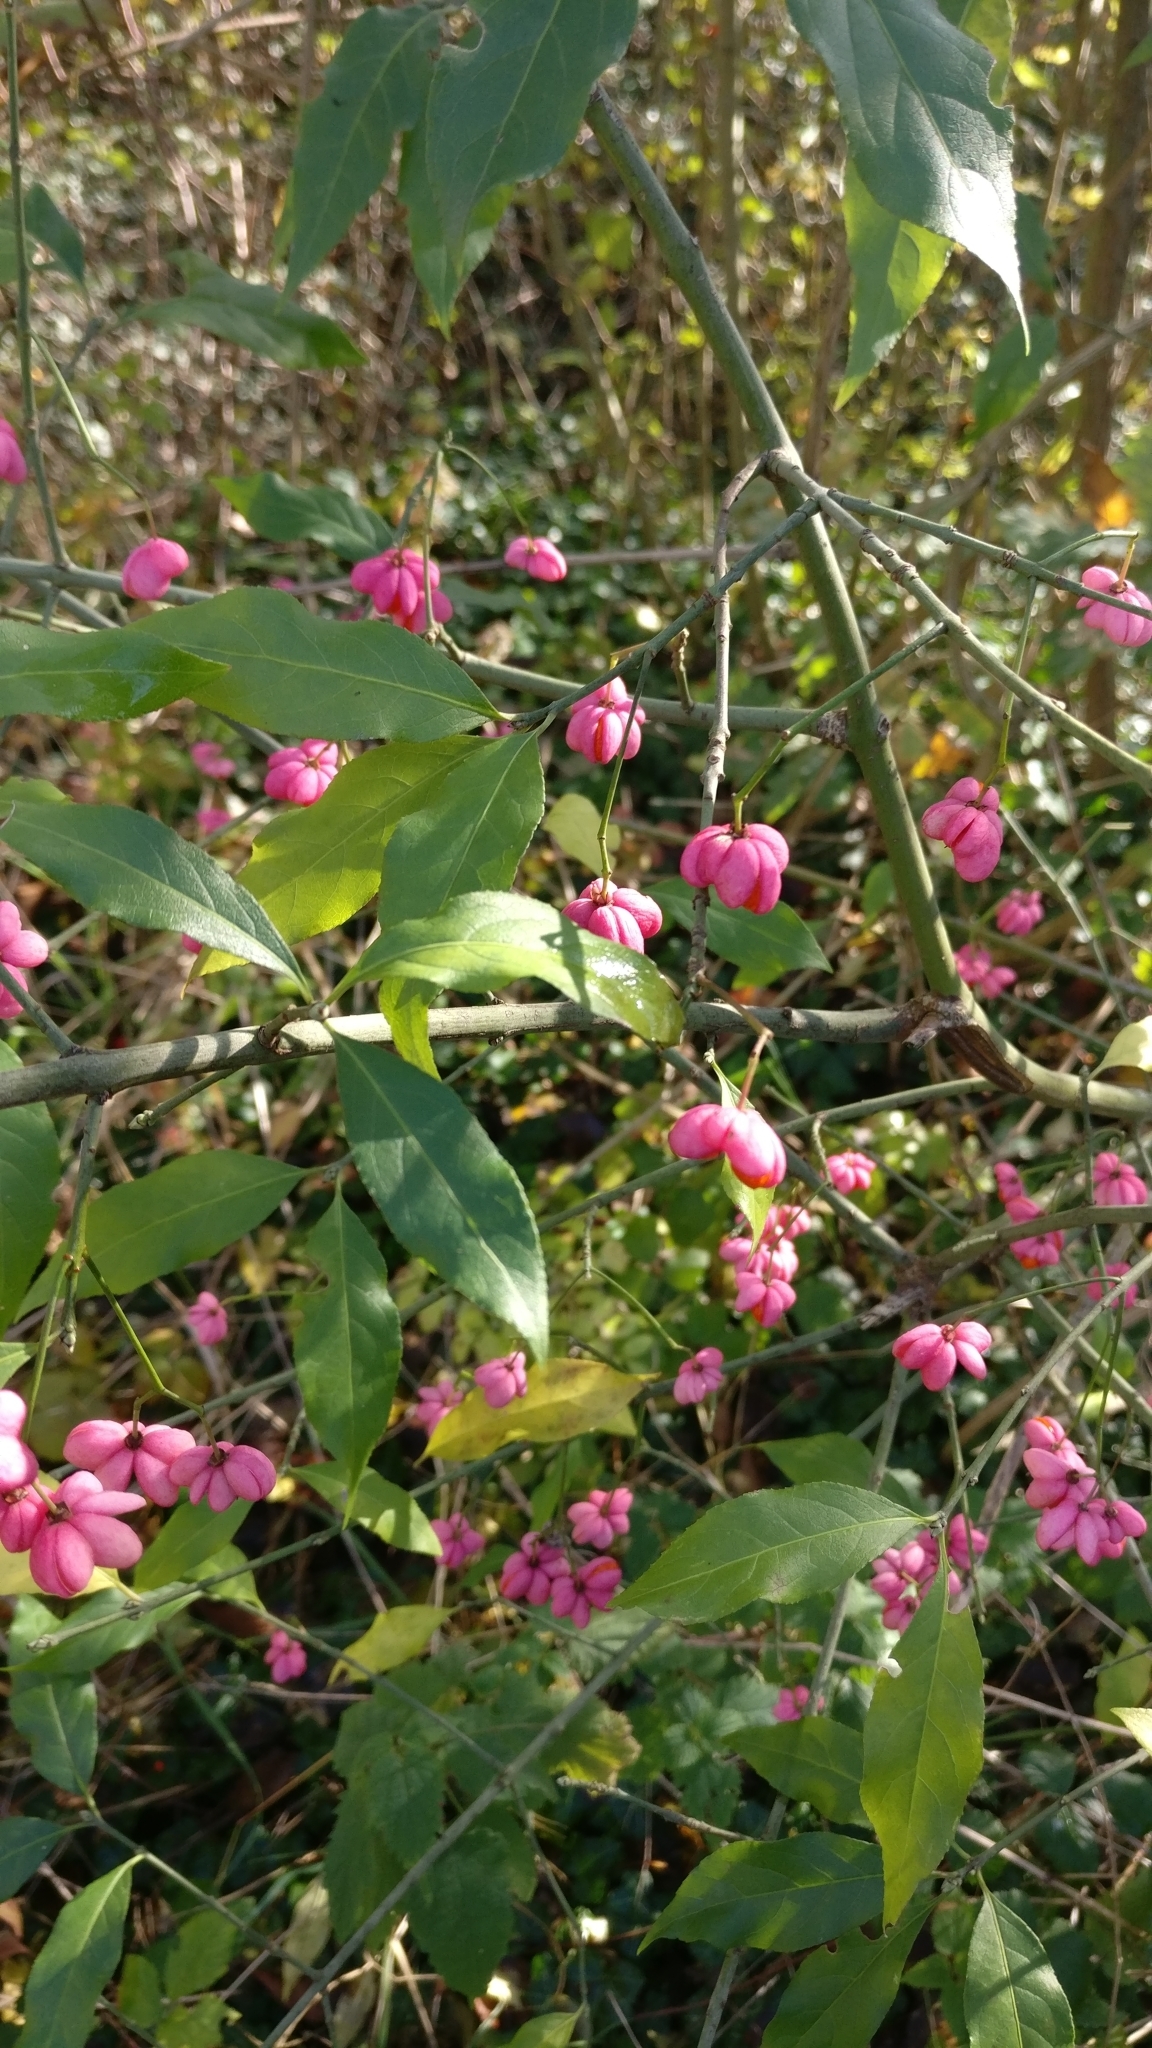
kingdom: Plantae
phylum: Tracheophyta
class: Magnoliopsida
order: Celastrales
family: Celastraceae
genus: Euonymus
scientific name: Euonymus europaeus
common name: Spindle
